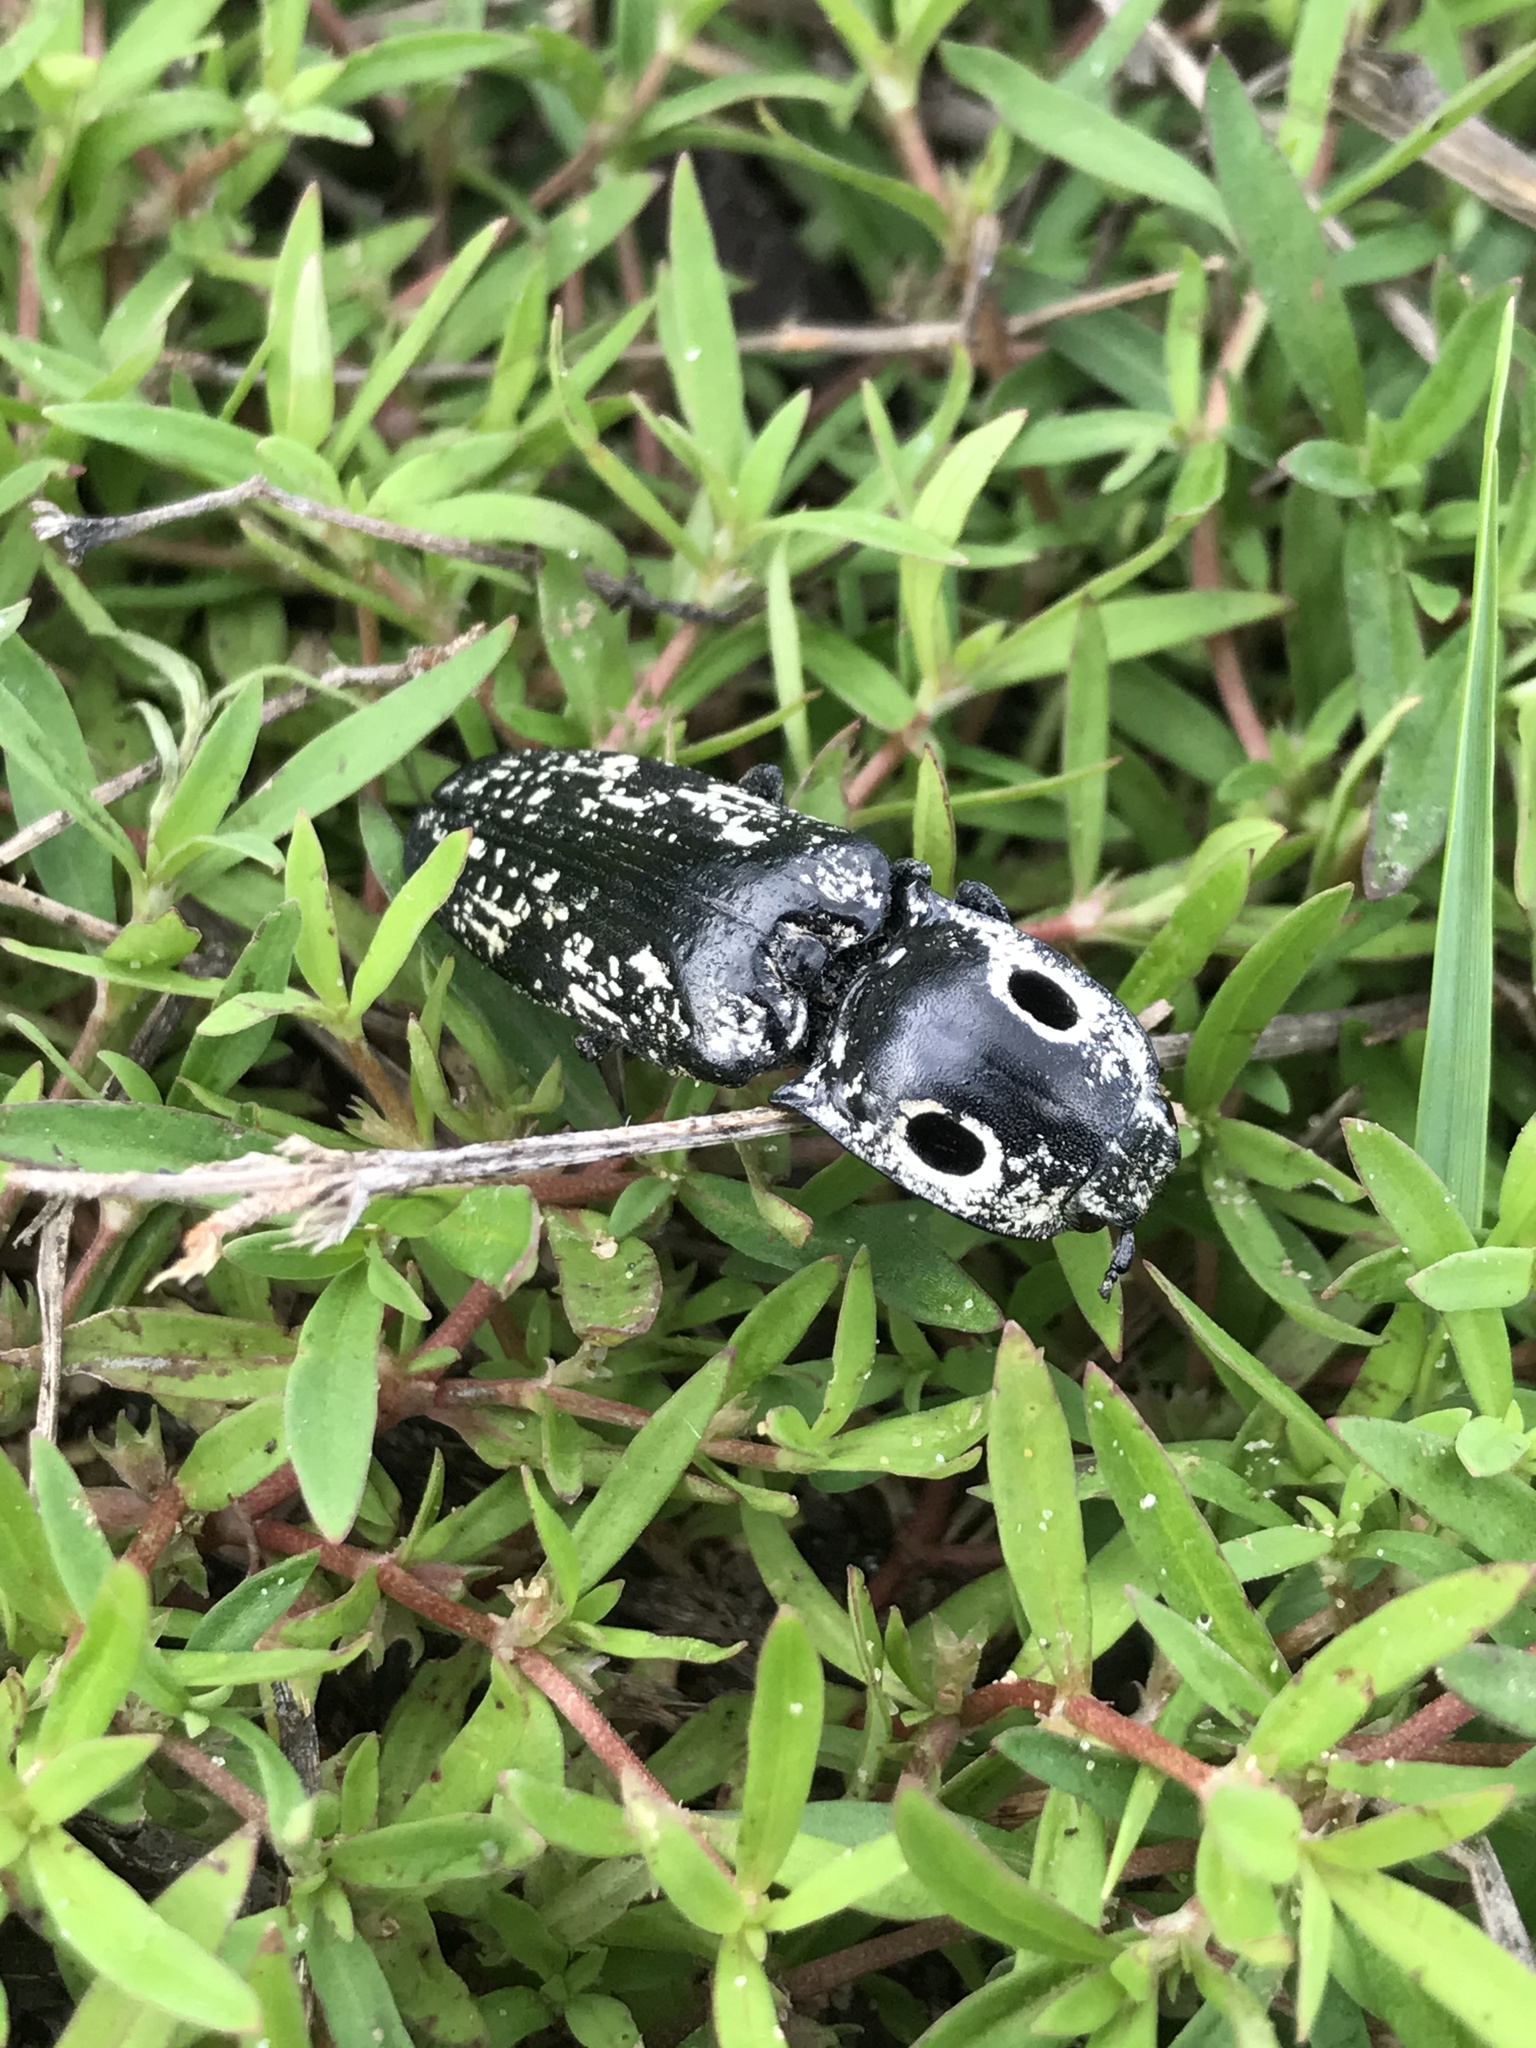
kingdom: Animalia
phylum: Arthropoda
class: Insecta
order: Coleoptera
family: Elateridae
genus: Alaus
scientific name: Alaus
